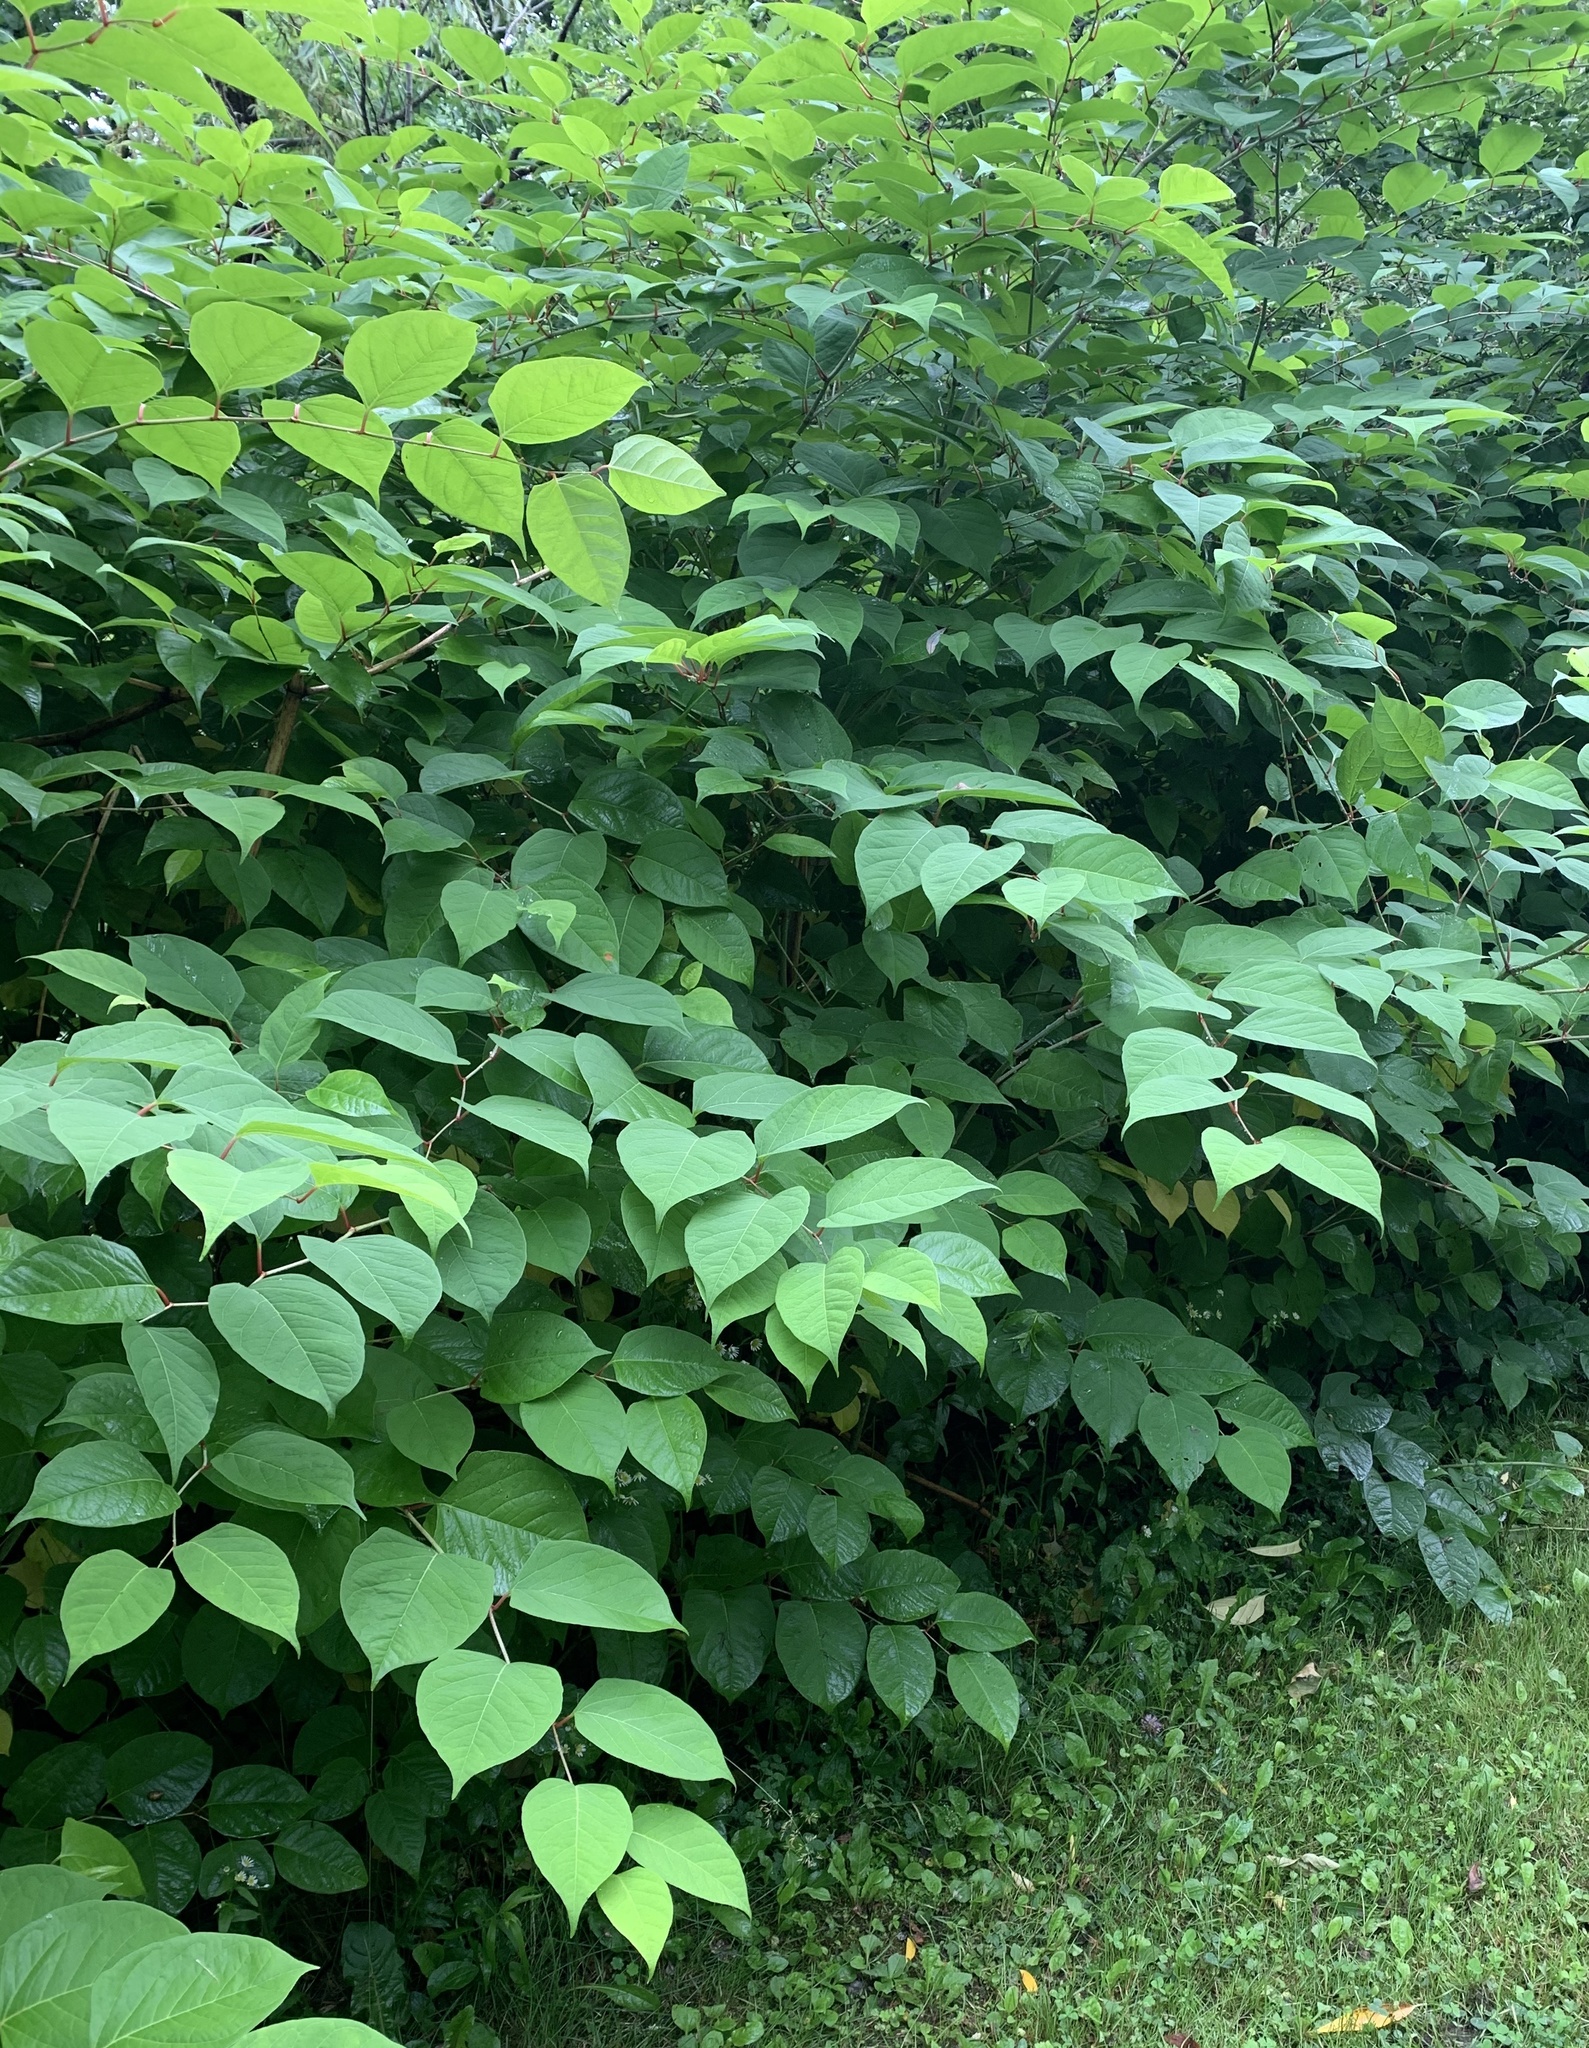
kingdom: Plantae
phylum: Tracheophyta
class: Magnoliopsida
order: Caryophyllales
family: Polygonaceae
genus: Reynoutria
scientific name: Reynoutria japonica
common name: Japanese knotweed
